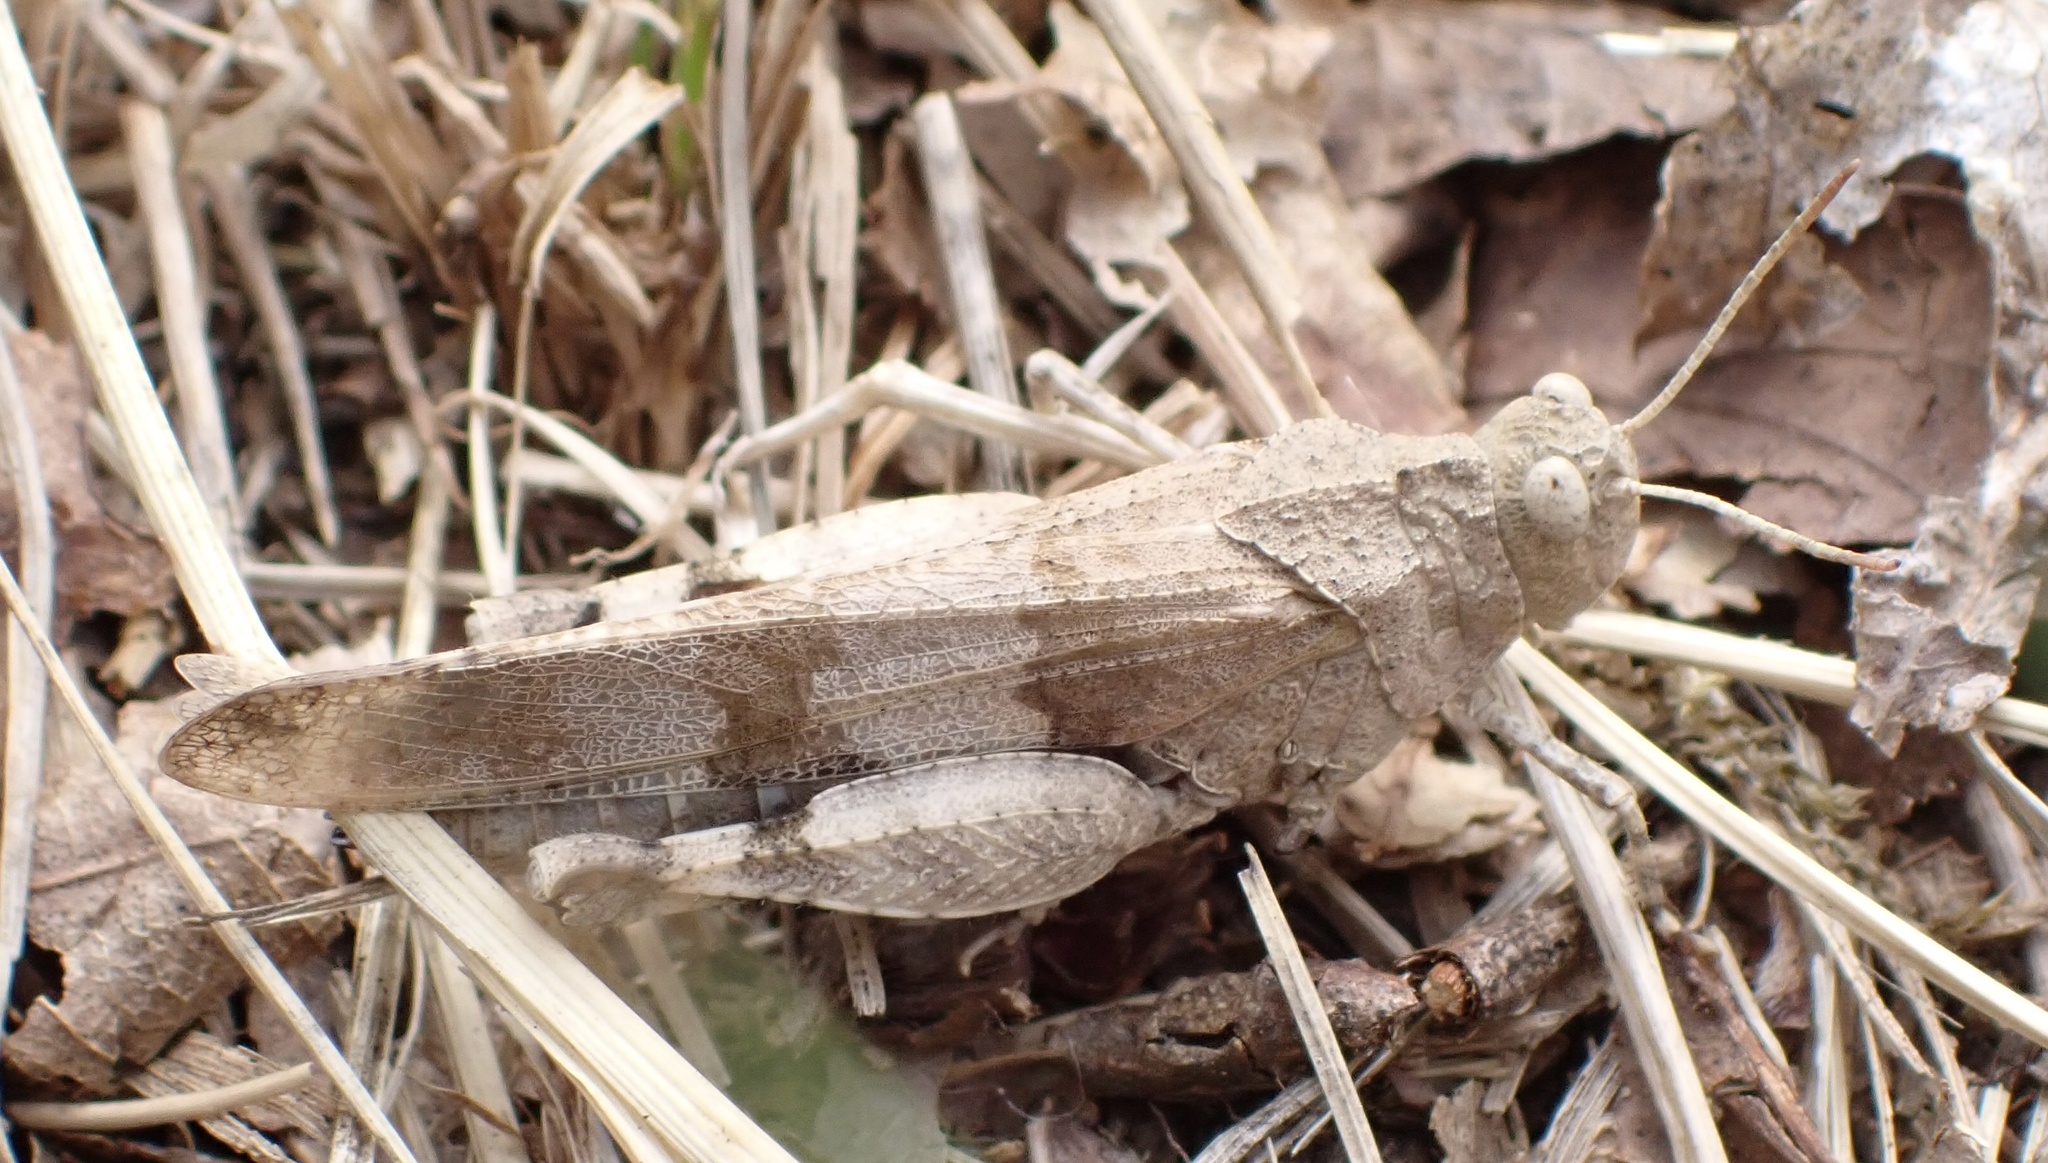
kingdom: Animalia
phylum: Arthropoda
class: Insecta
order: Orthoptera
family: Acrididae
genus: Oedipoda
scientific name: Oedipoda caerulescens
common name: Blue-winged grasshopper
